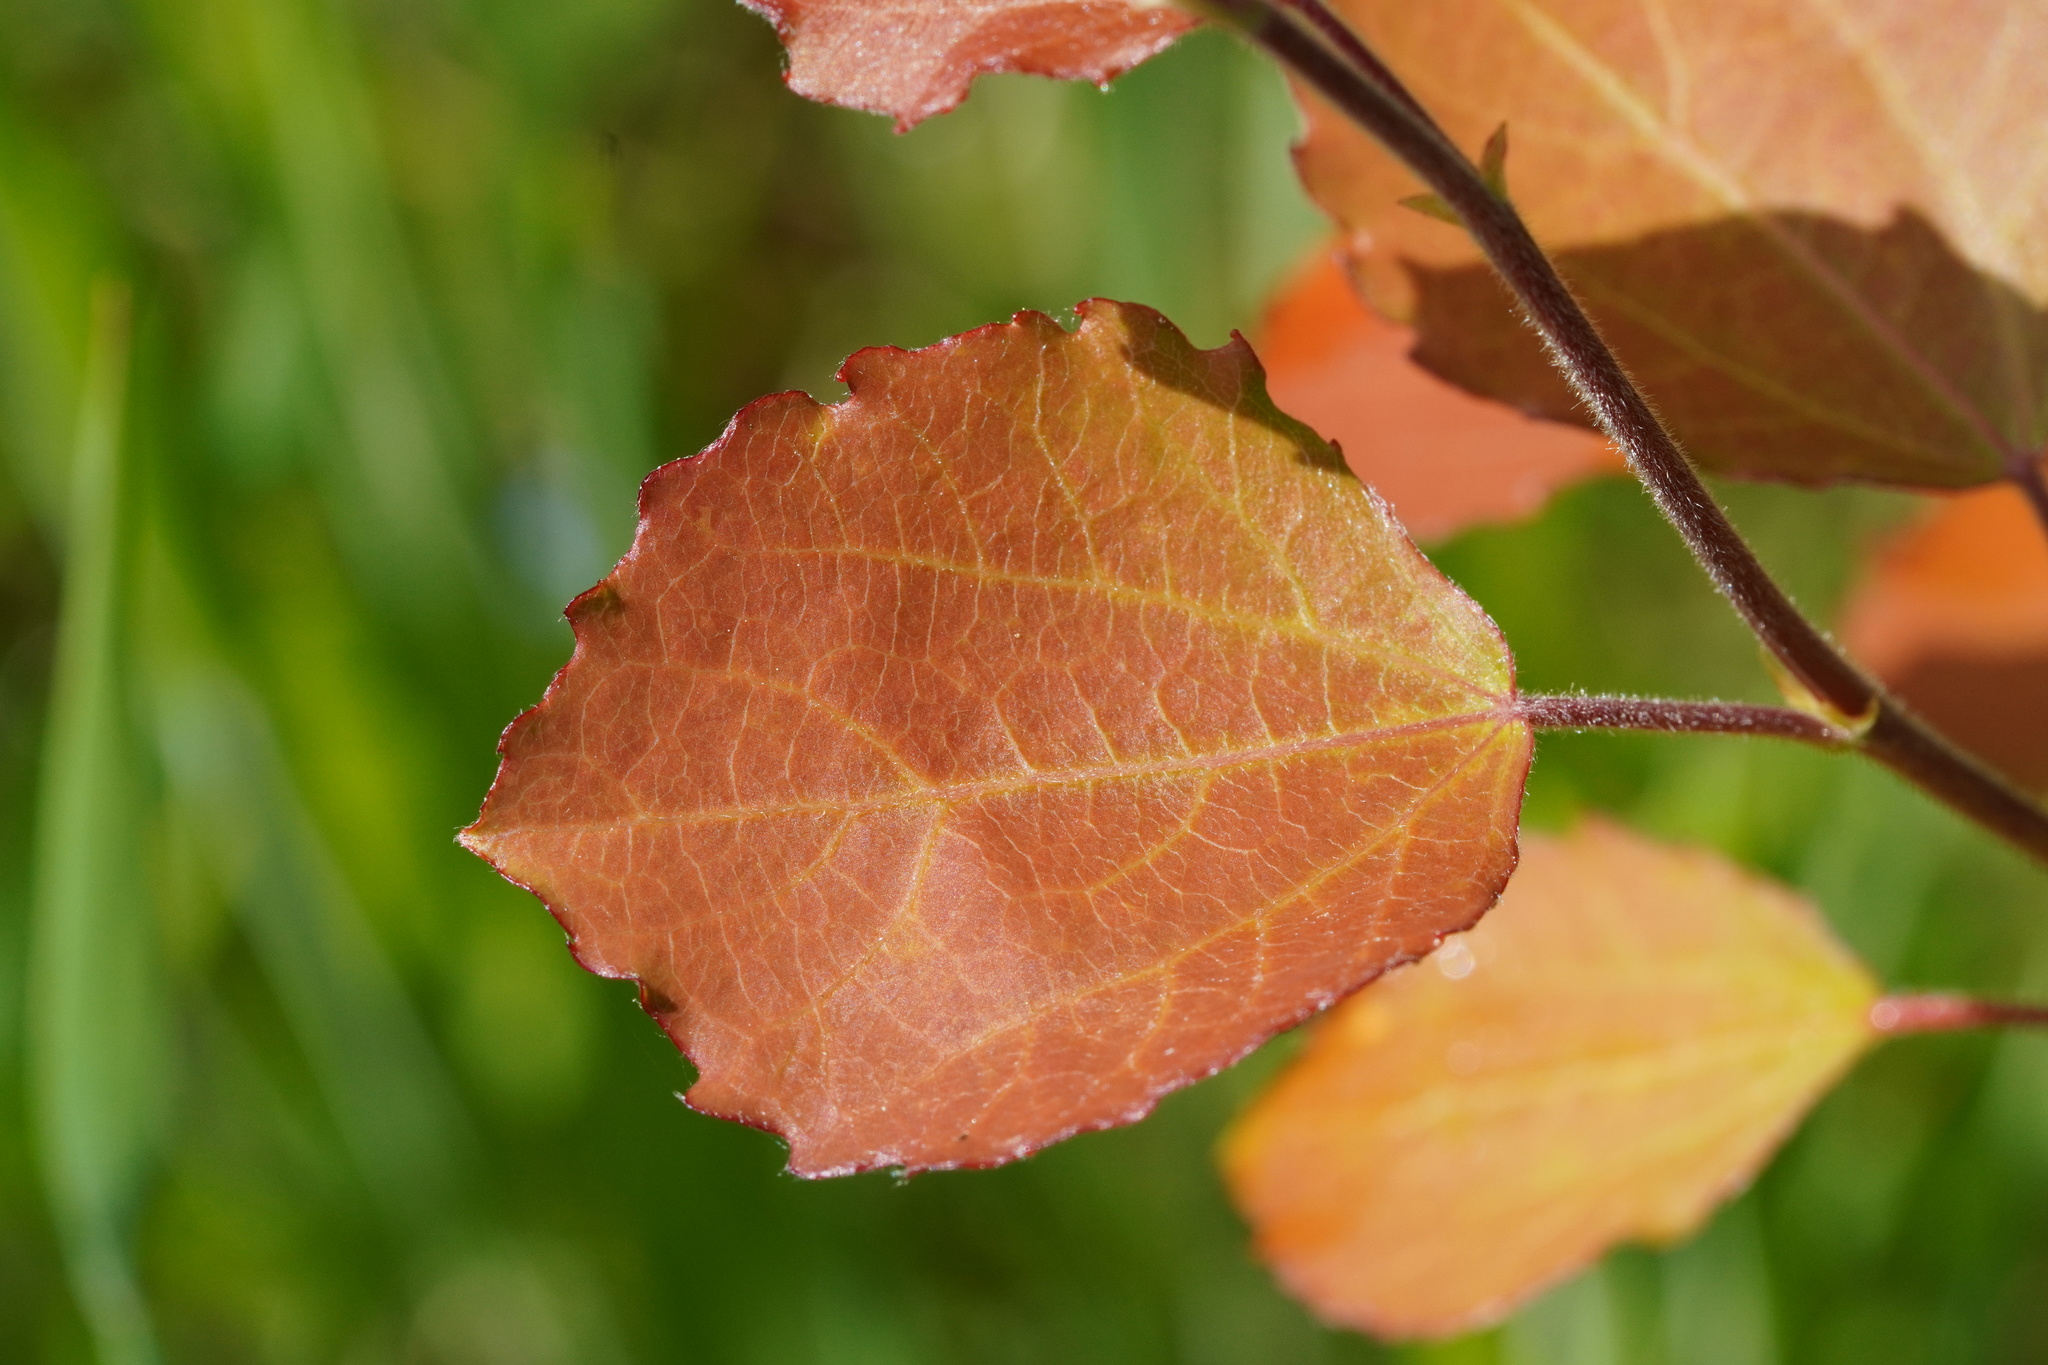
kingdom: Plantae
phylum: Tracheophyta
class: Magnoliopsida
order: Malpighiales
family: Salicaceae
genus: Populus
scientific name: Populus tremula
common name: European aspen
